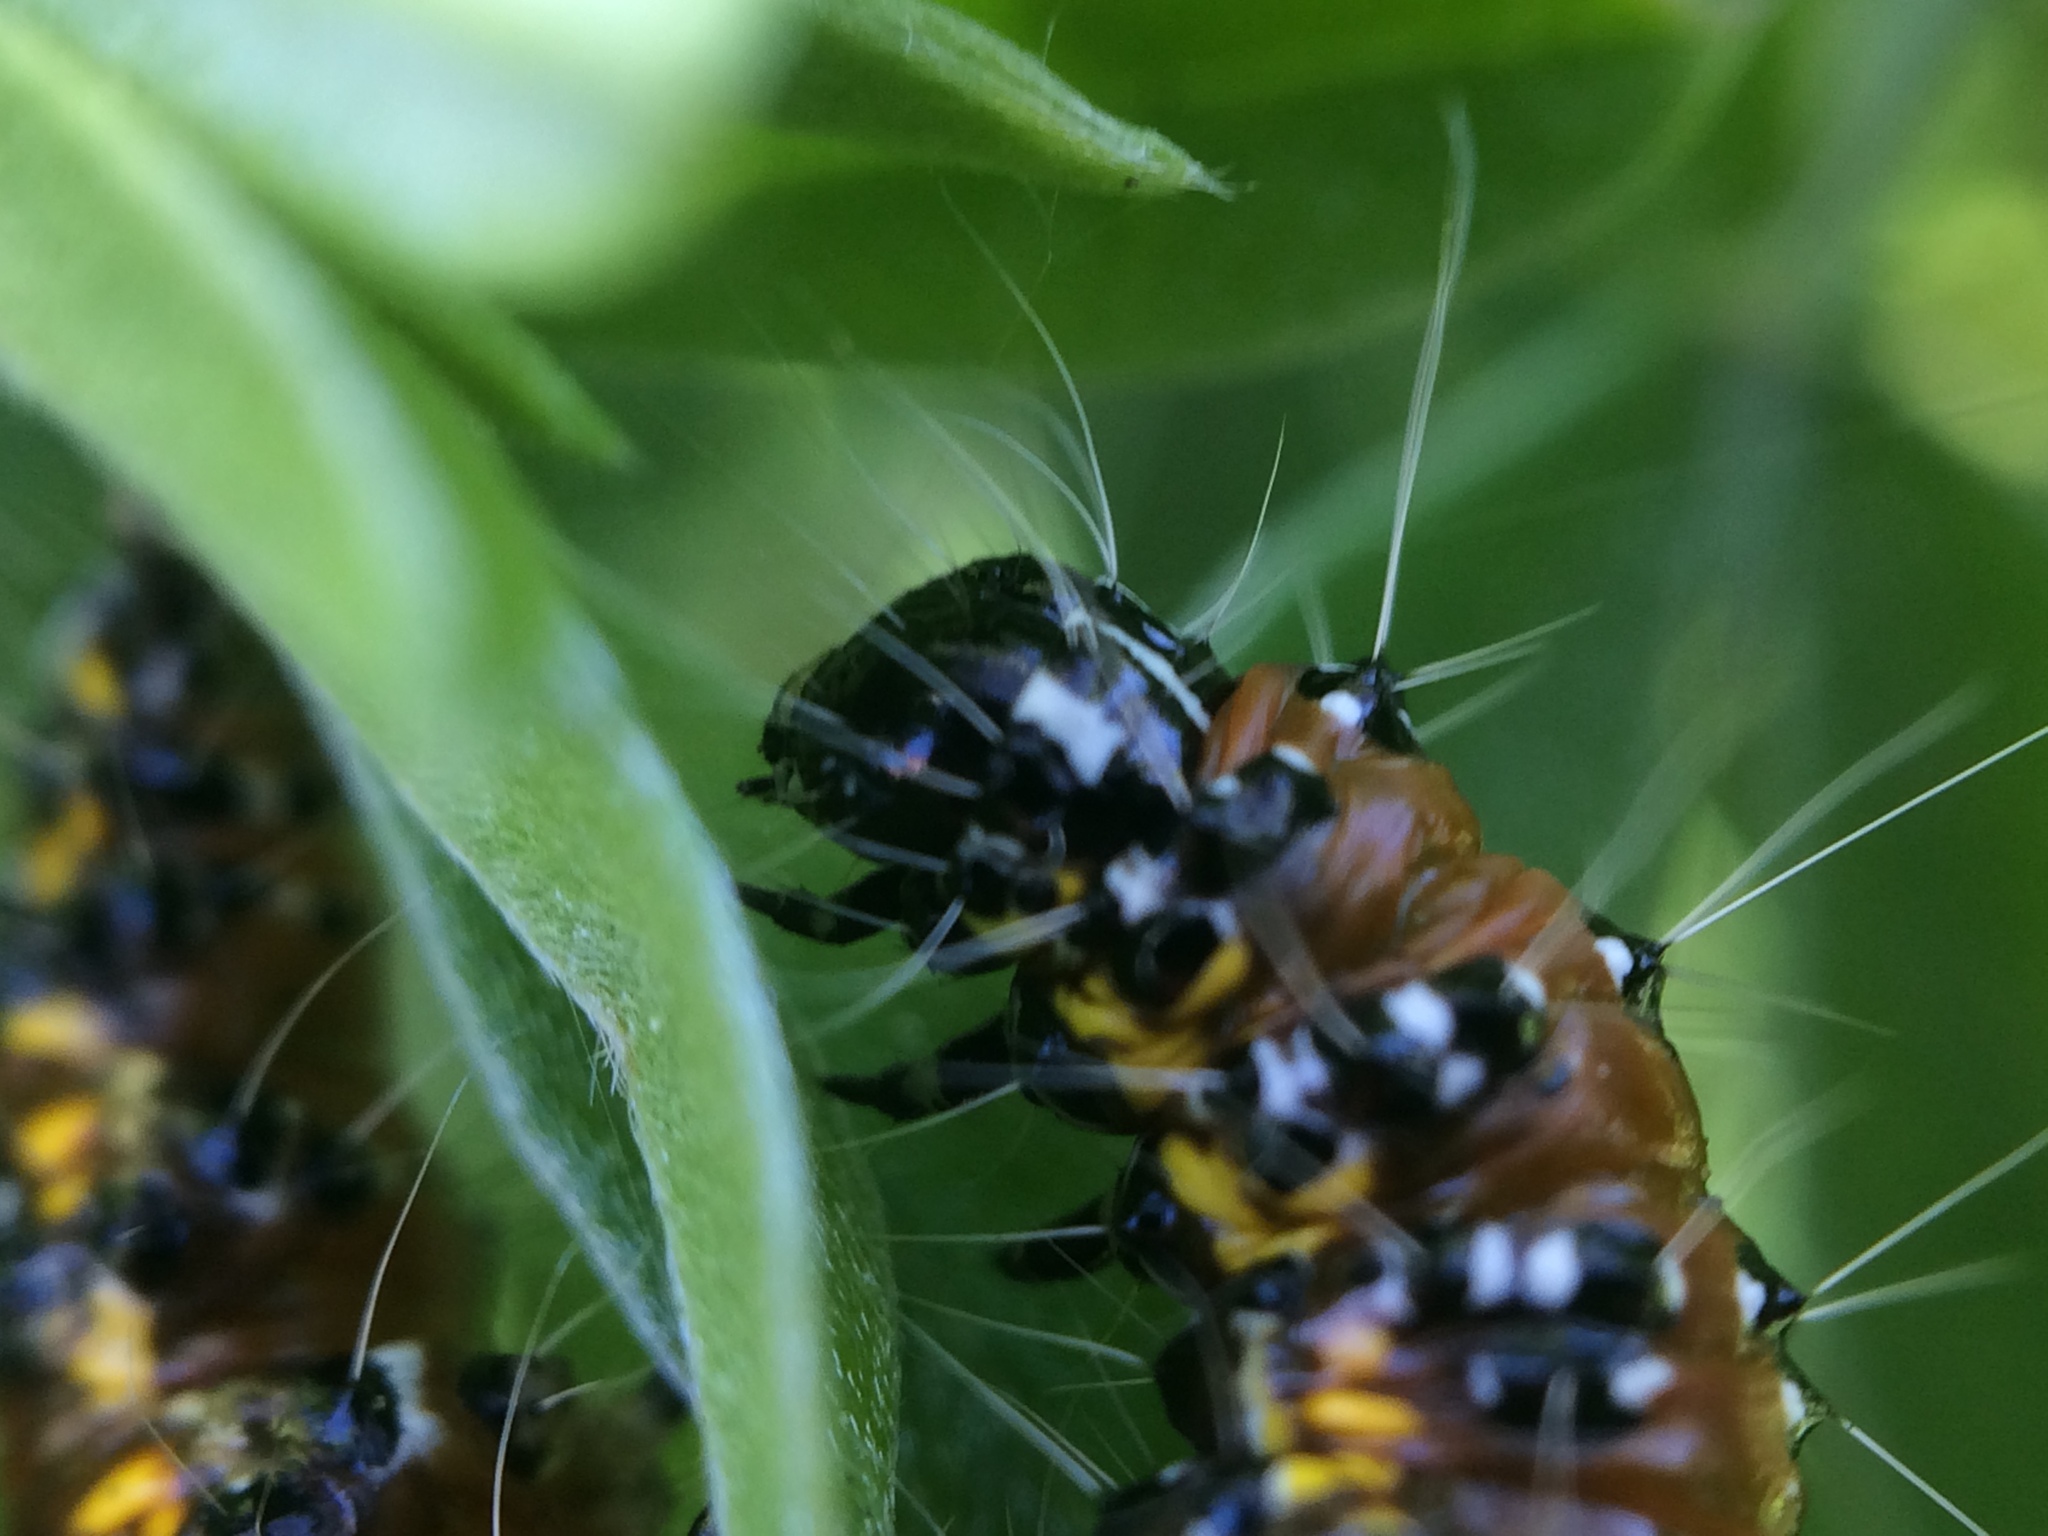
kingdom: Animalia
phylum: Arthropoda
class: Insecta
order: Lepidoptera
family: Crambidae
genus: Uresiphita
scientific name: Uresiphita reversalis
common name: Genista broom moth
